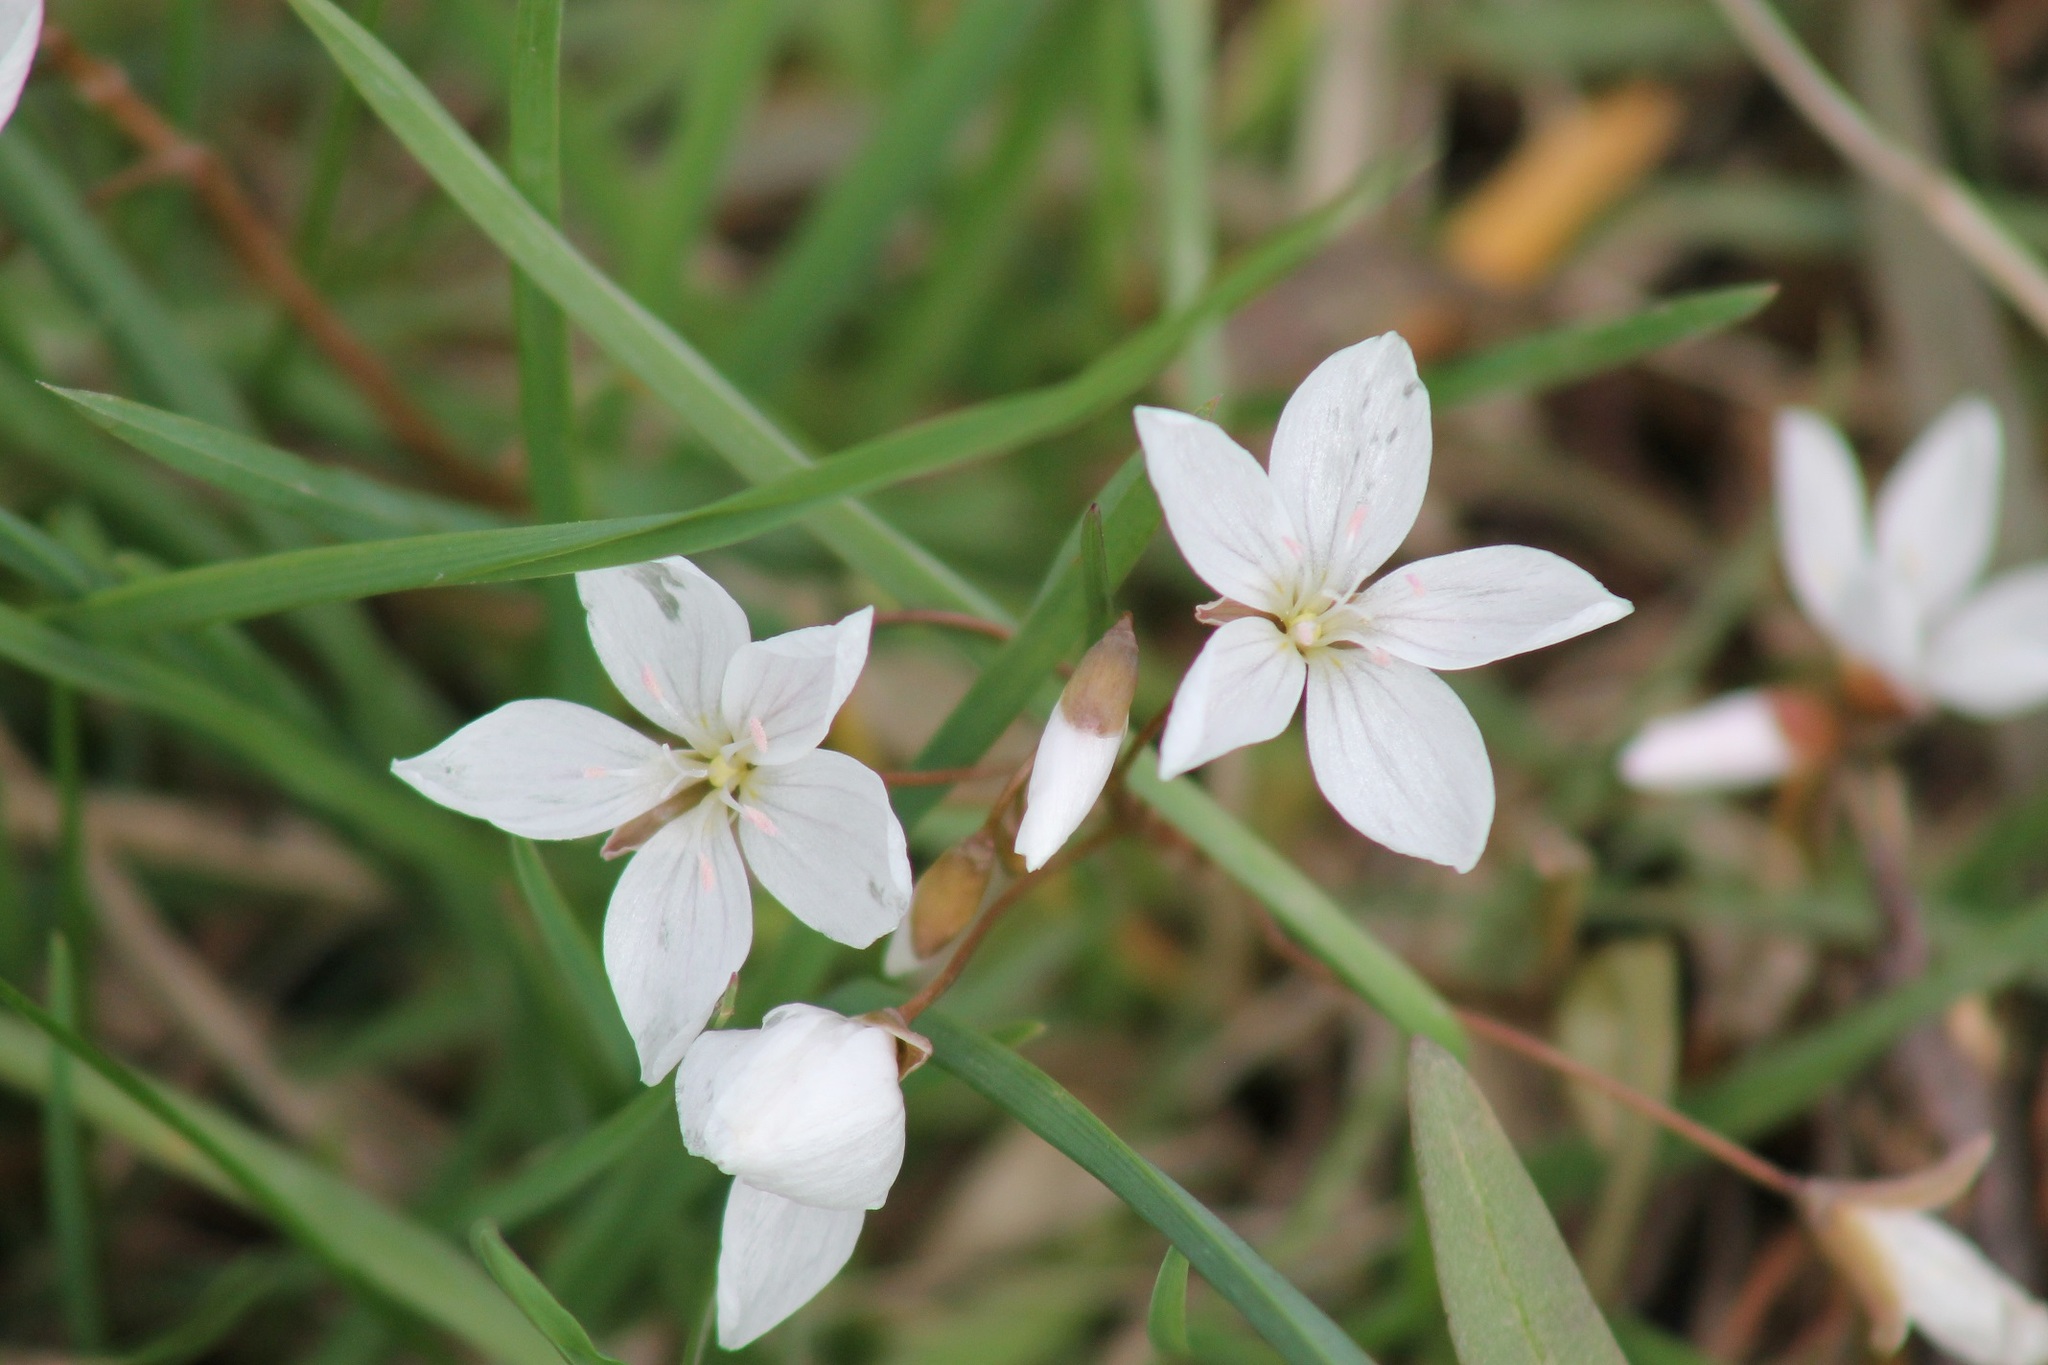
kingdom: Plantae
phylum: Tracheophyta
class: Magnoliopsida
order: Caryophyllales
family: Montiaceae
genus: Claytonia
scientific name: Claytonia virginica
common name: Virginia springbeauty
